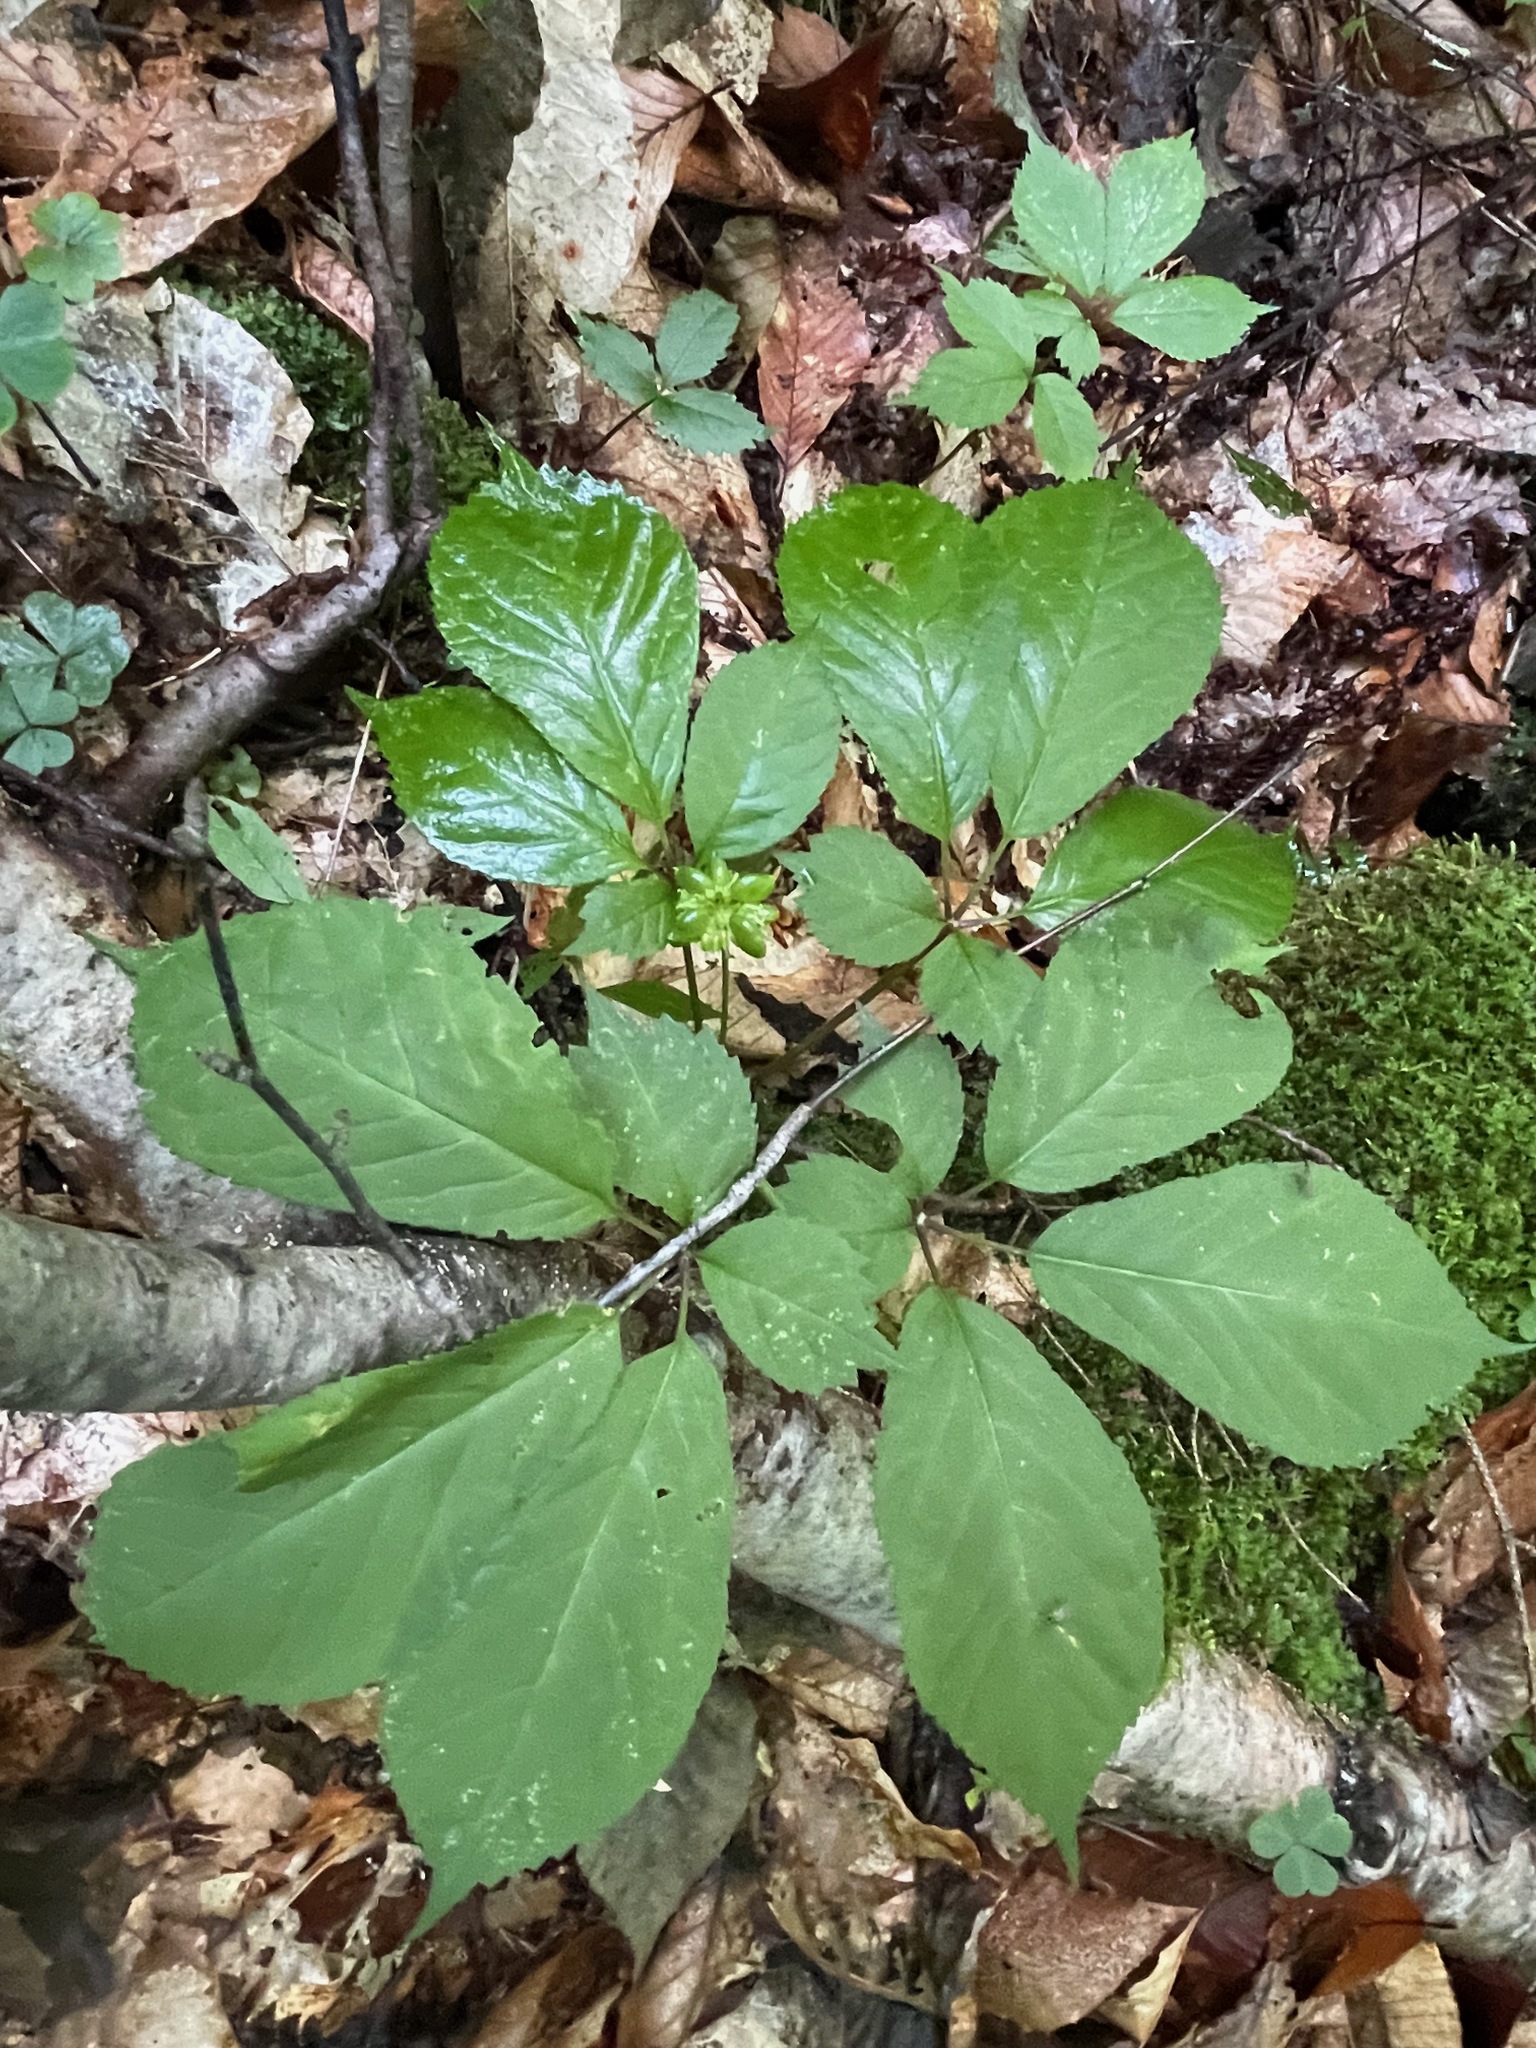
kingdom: Plantae
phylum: Tracheophyta
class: Magnoliopsida
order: Apiales
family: Araliaceae
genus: Panax
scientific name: Panax quinquefolius
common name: American ginseng
